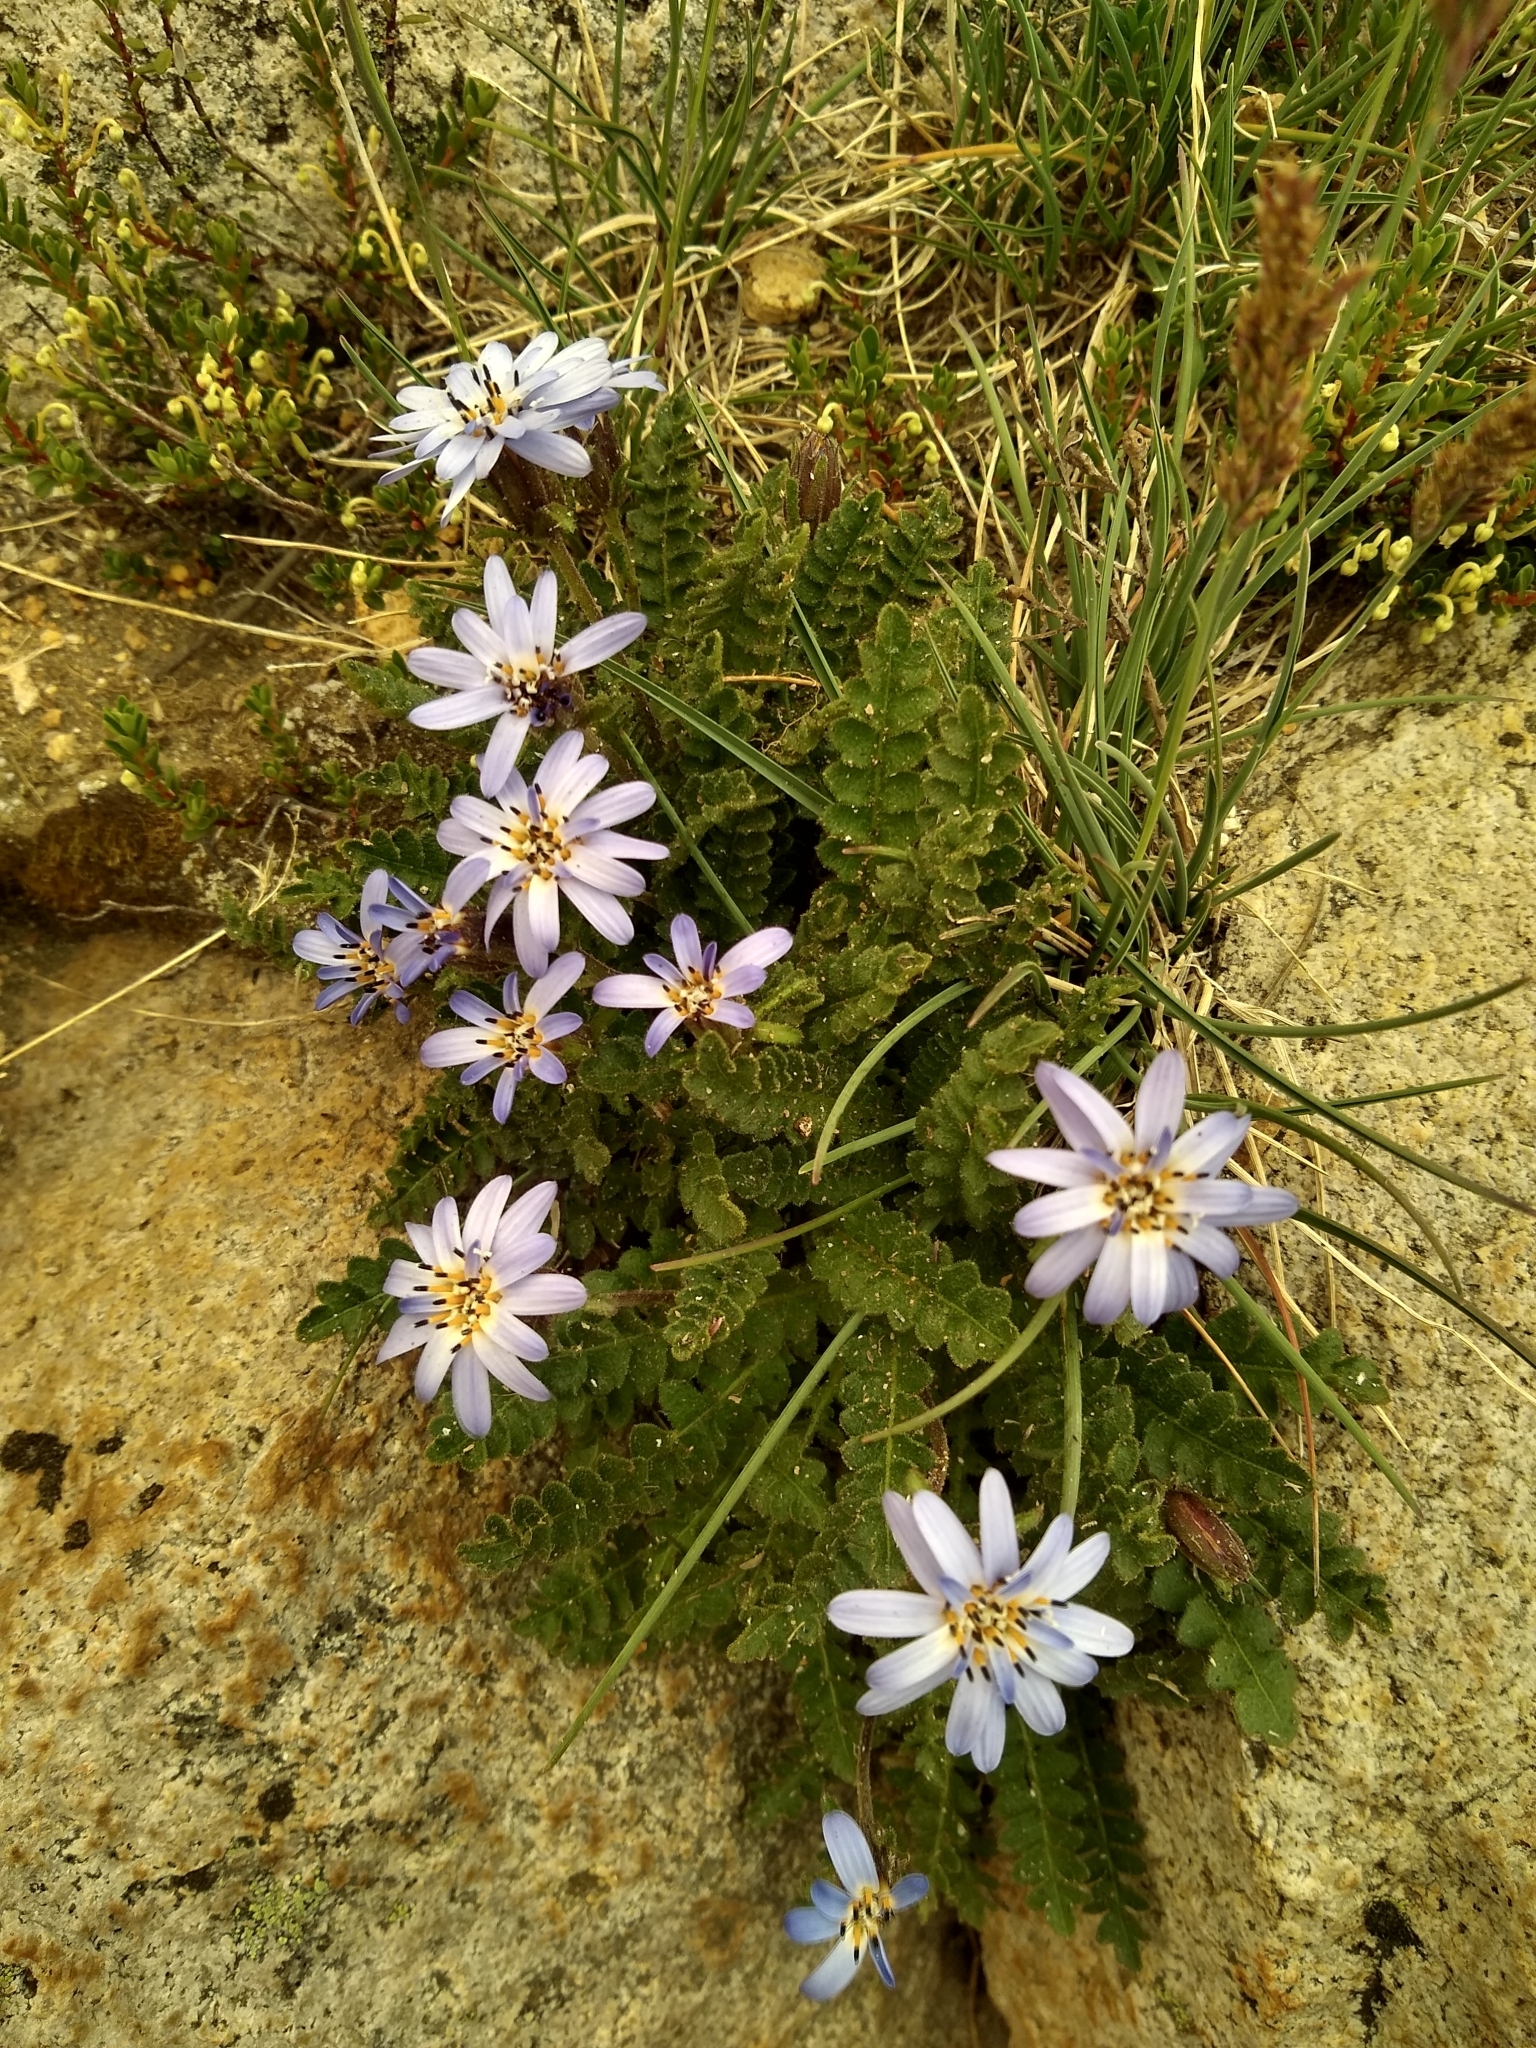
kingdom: Plantae
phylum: Tracheophyta
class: Magnoliopsida
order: Asterales
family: Asteraceae
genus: Perezia
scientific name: Perezia fonckii
